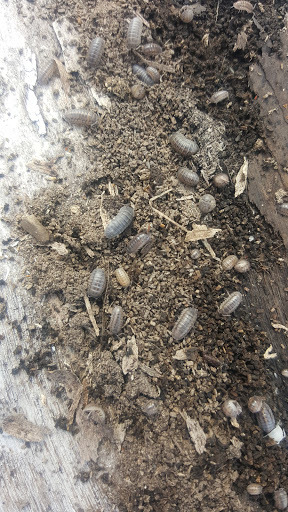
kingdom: Animalia
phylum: Arthropoda
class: Malacostraca
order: Isopoda
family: Armadillidiidae
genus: Armadillidium
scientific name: Armadillidium nasatum
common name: Isopod
